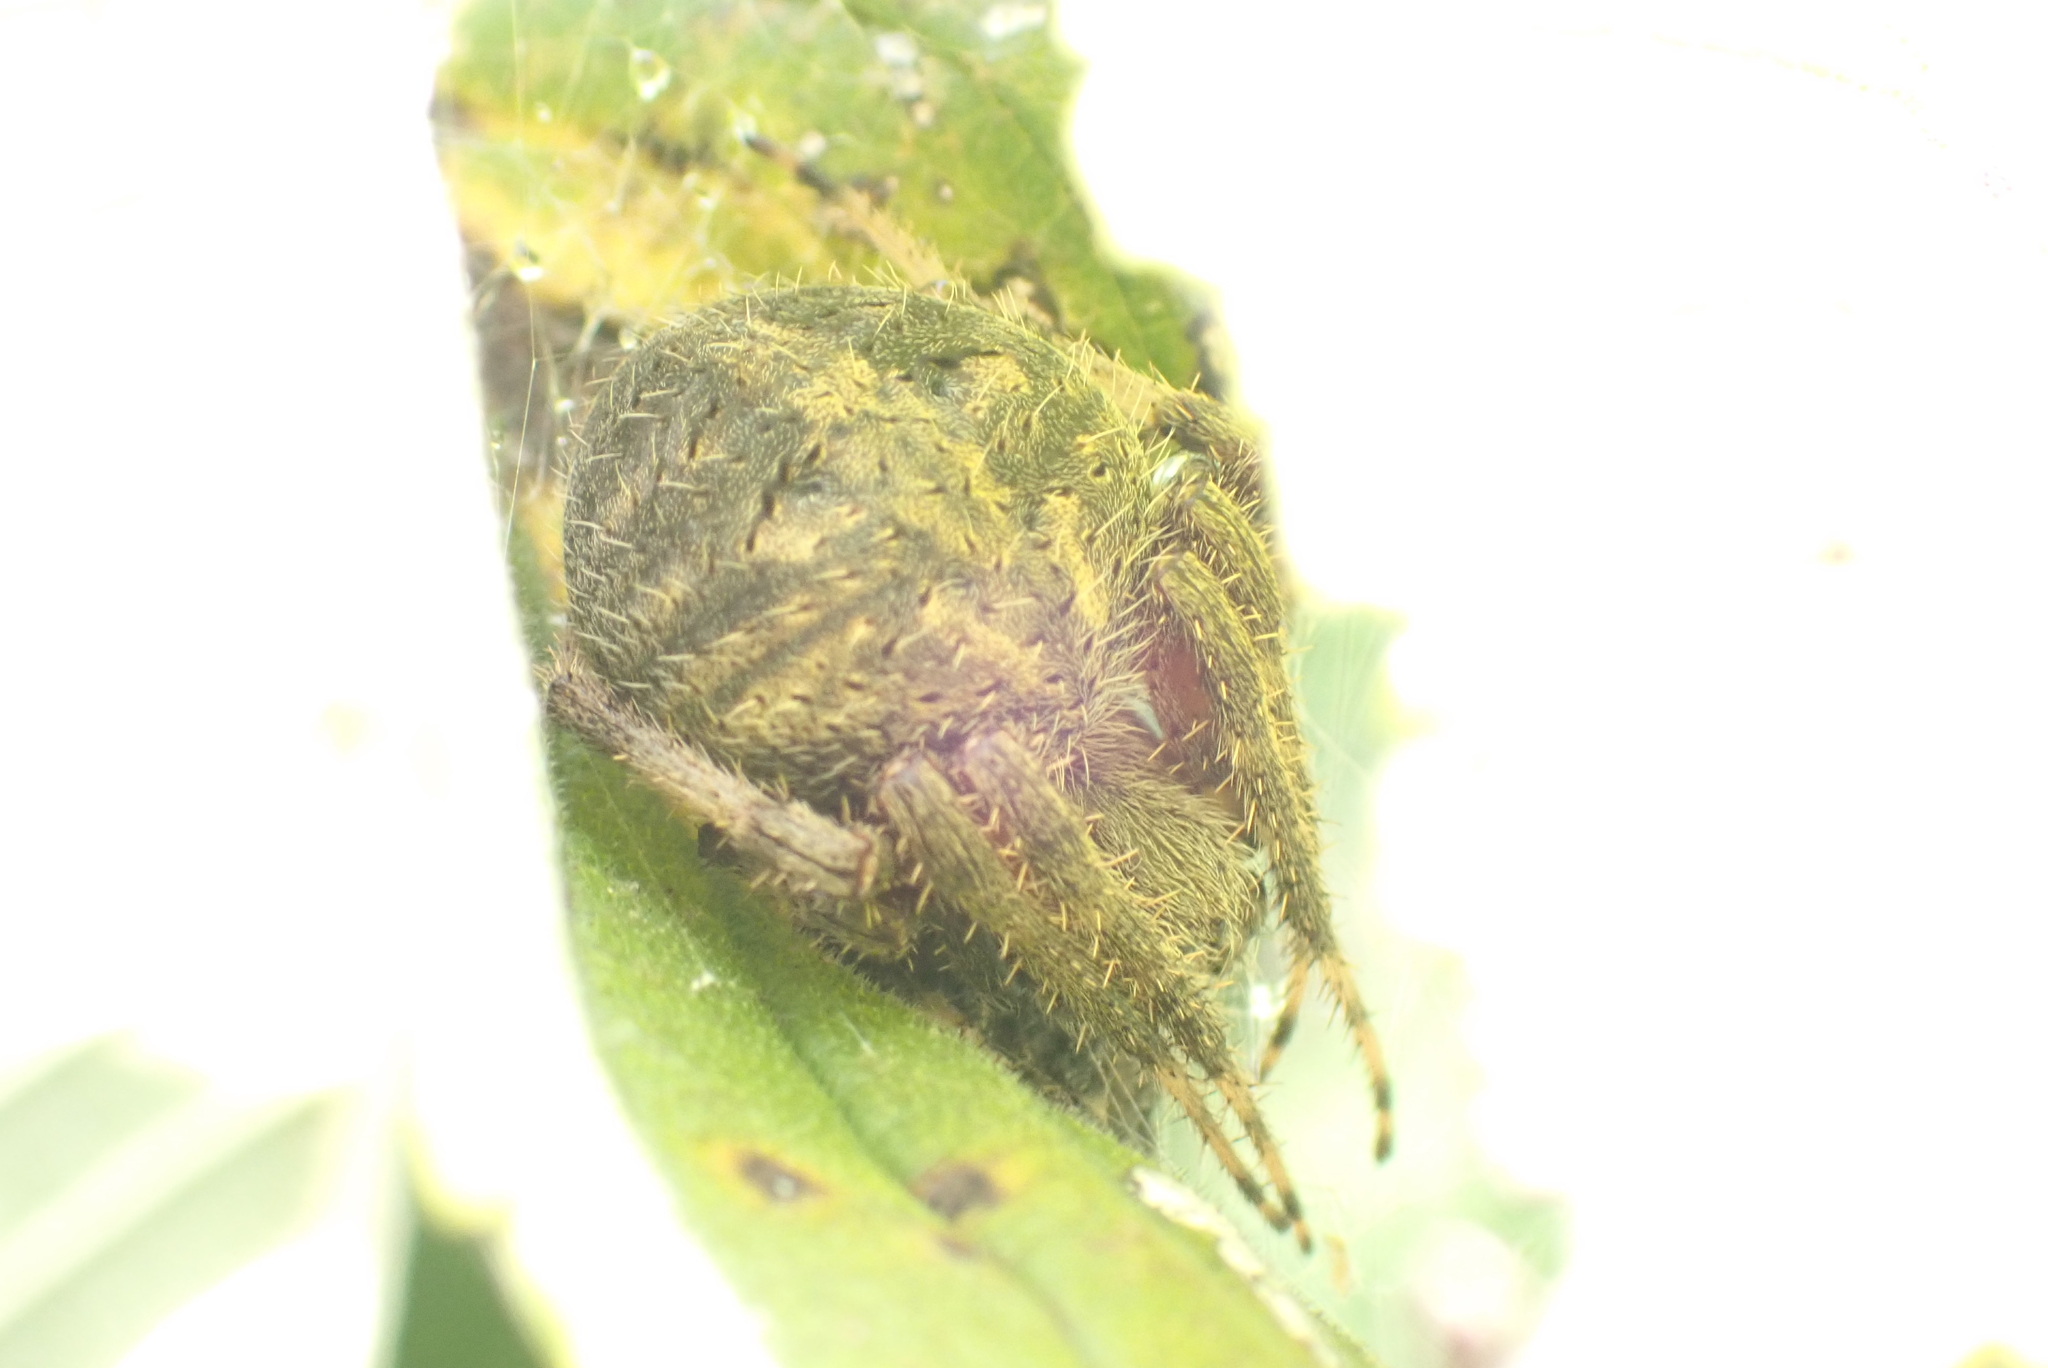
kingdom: Animalia
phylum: Arthropoda
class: Arachnida
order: Araneae
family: Araneidae
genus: Neoscona
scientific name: Neoscona crucifera
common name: Spotted orbweaver
